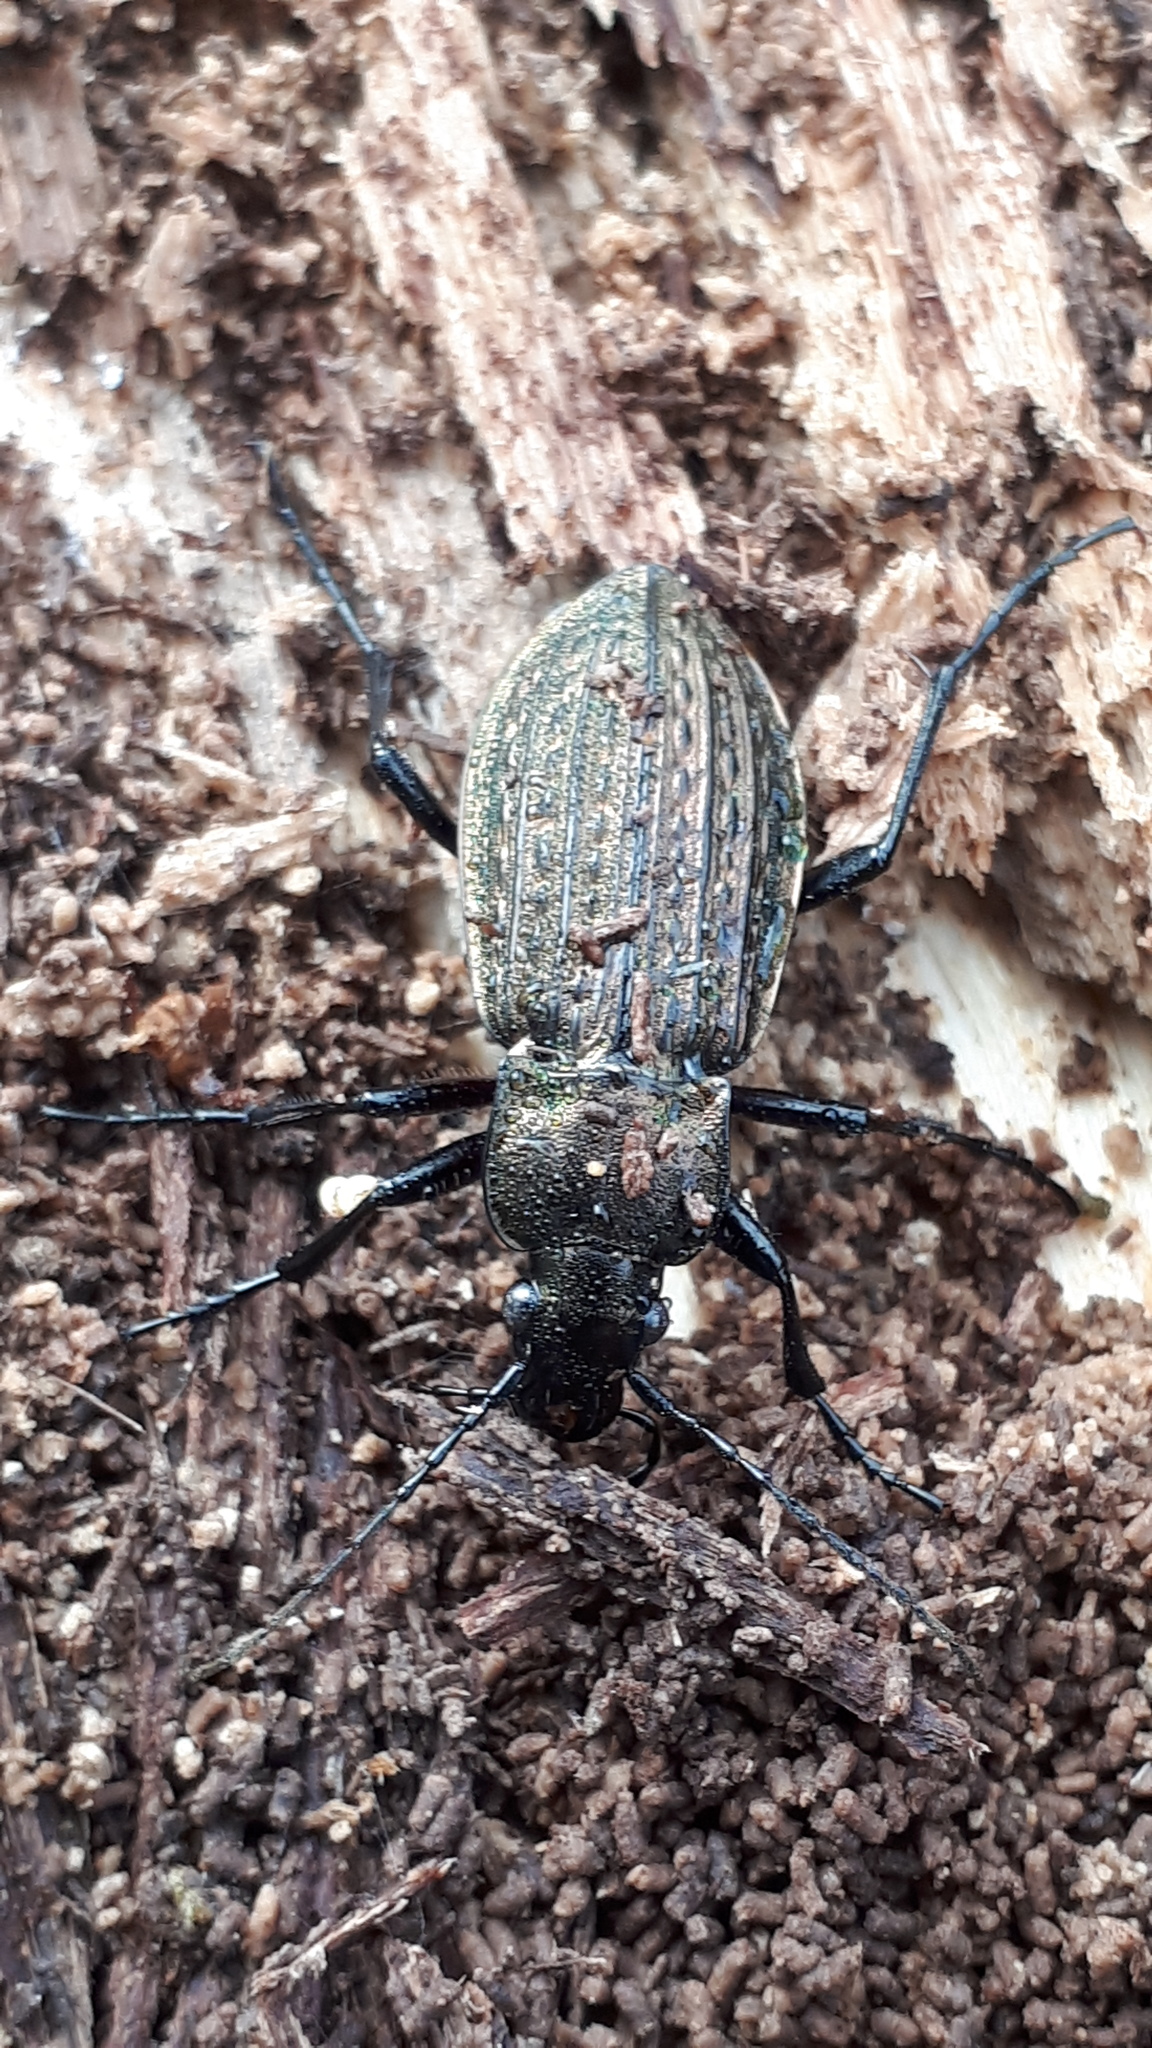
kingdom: Animalia
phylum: Arthropoda
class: Insecta
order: Coleoptera
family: Carabidae
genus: Carabus
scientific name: Carabus granulatus
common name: Granulate ground beetle
